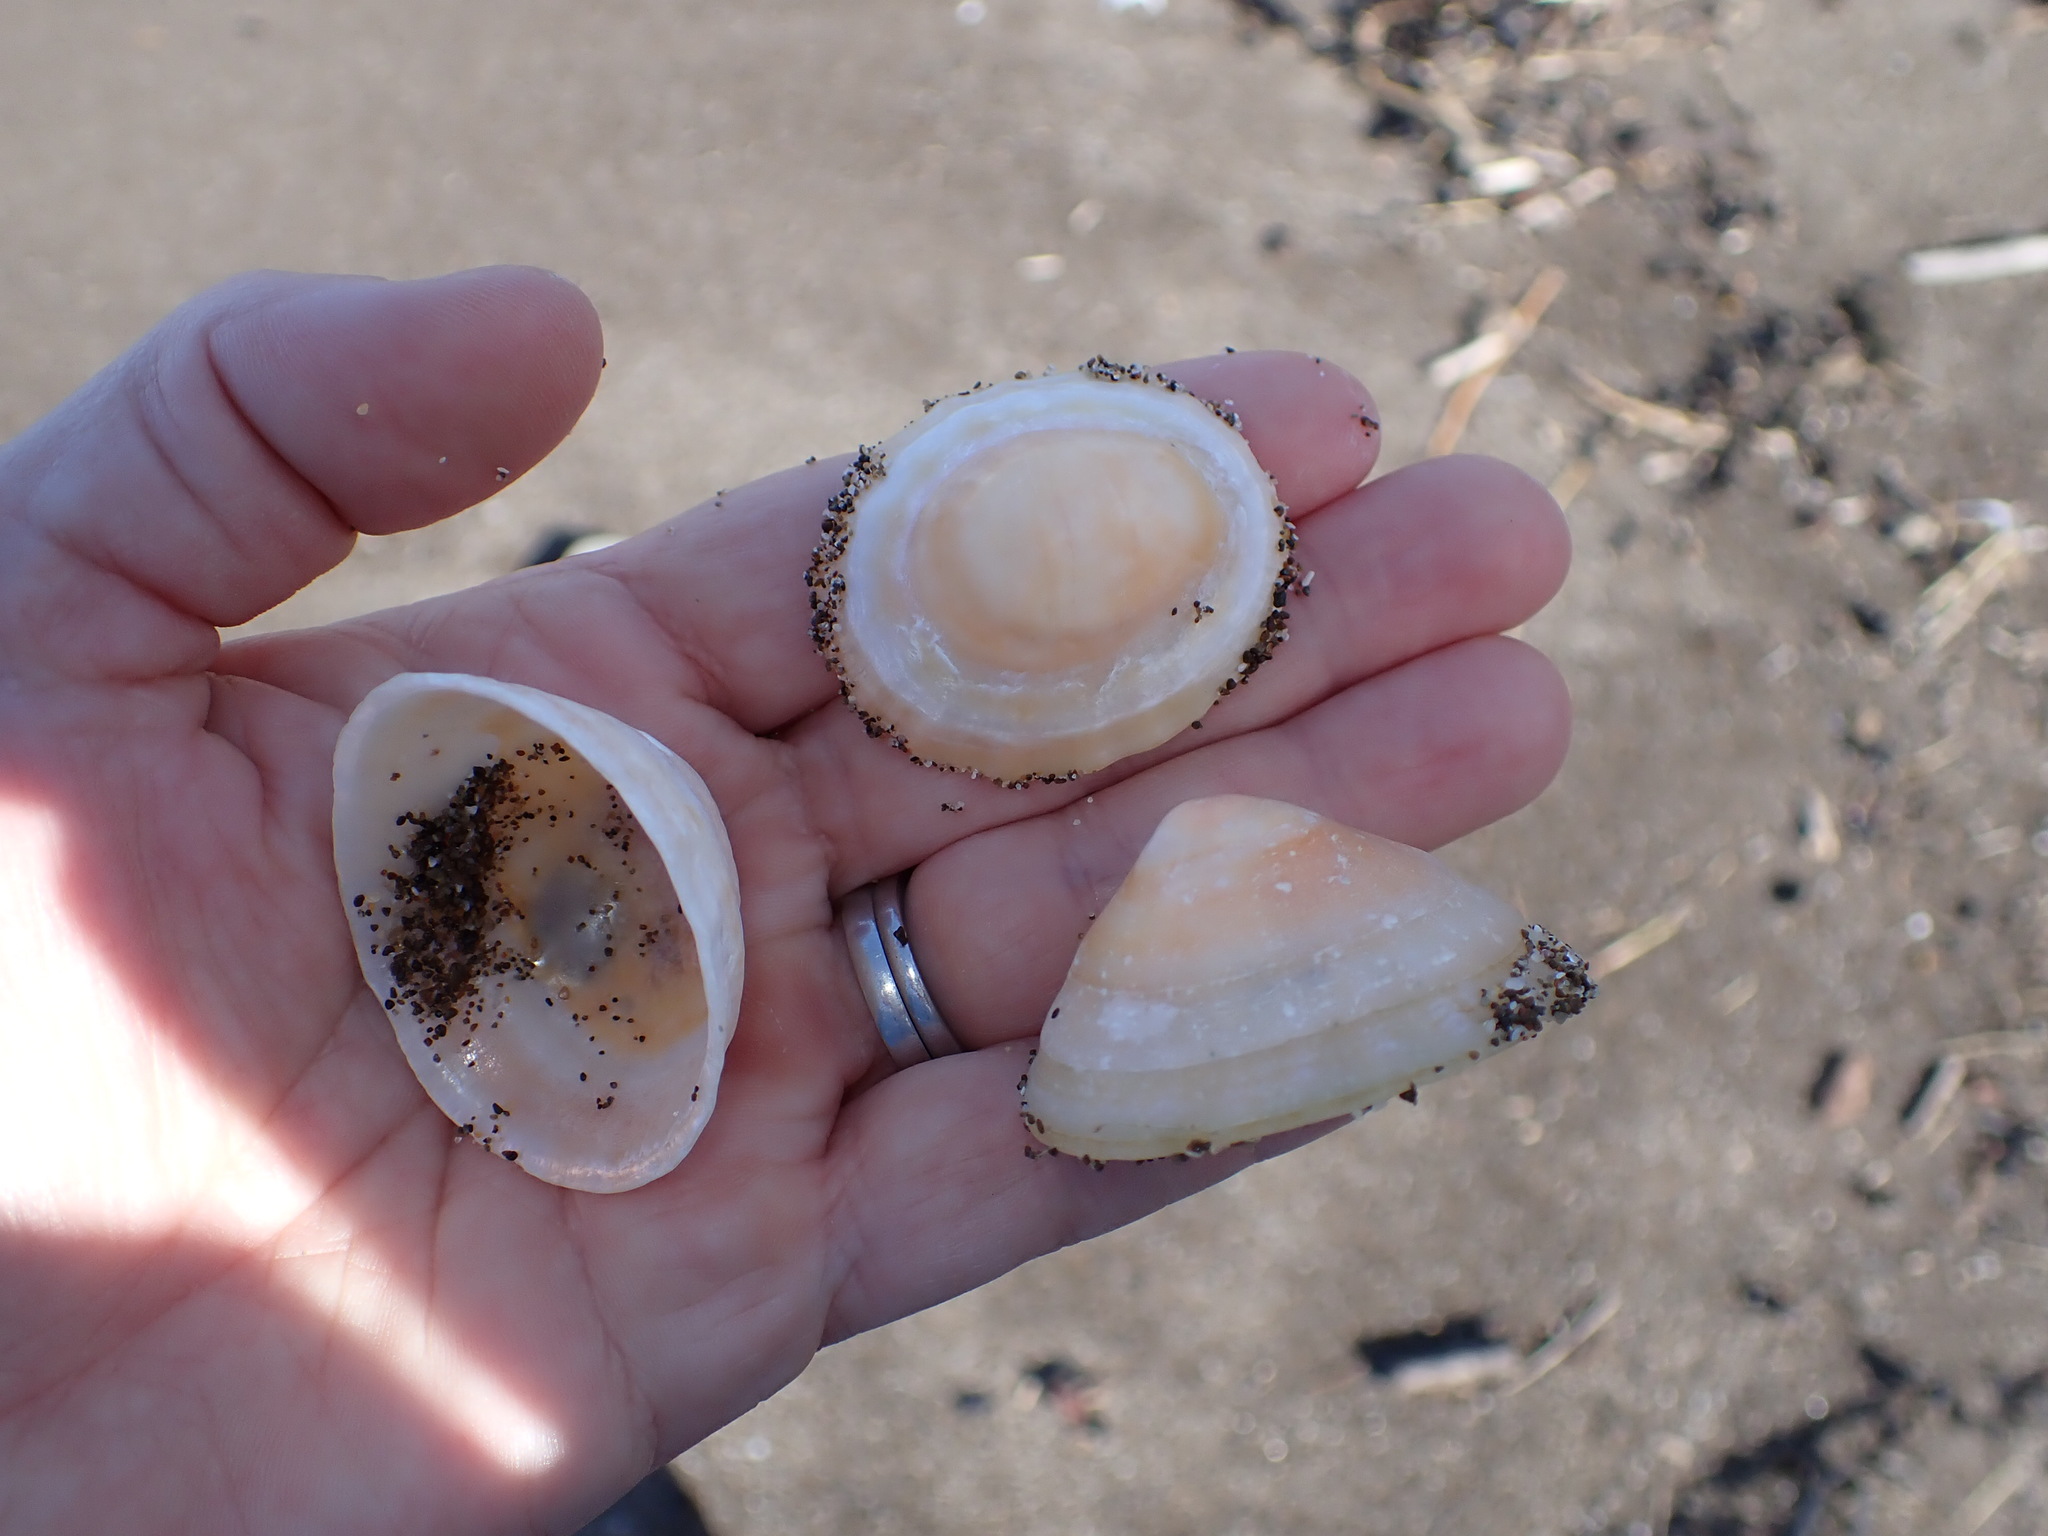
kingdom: Animalia
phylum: Mollusca
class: Gastropoda
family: Nacellidae
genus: Cellana
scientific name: Cellana flava
